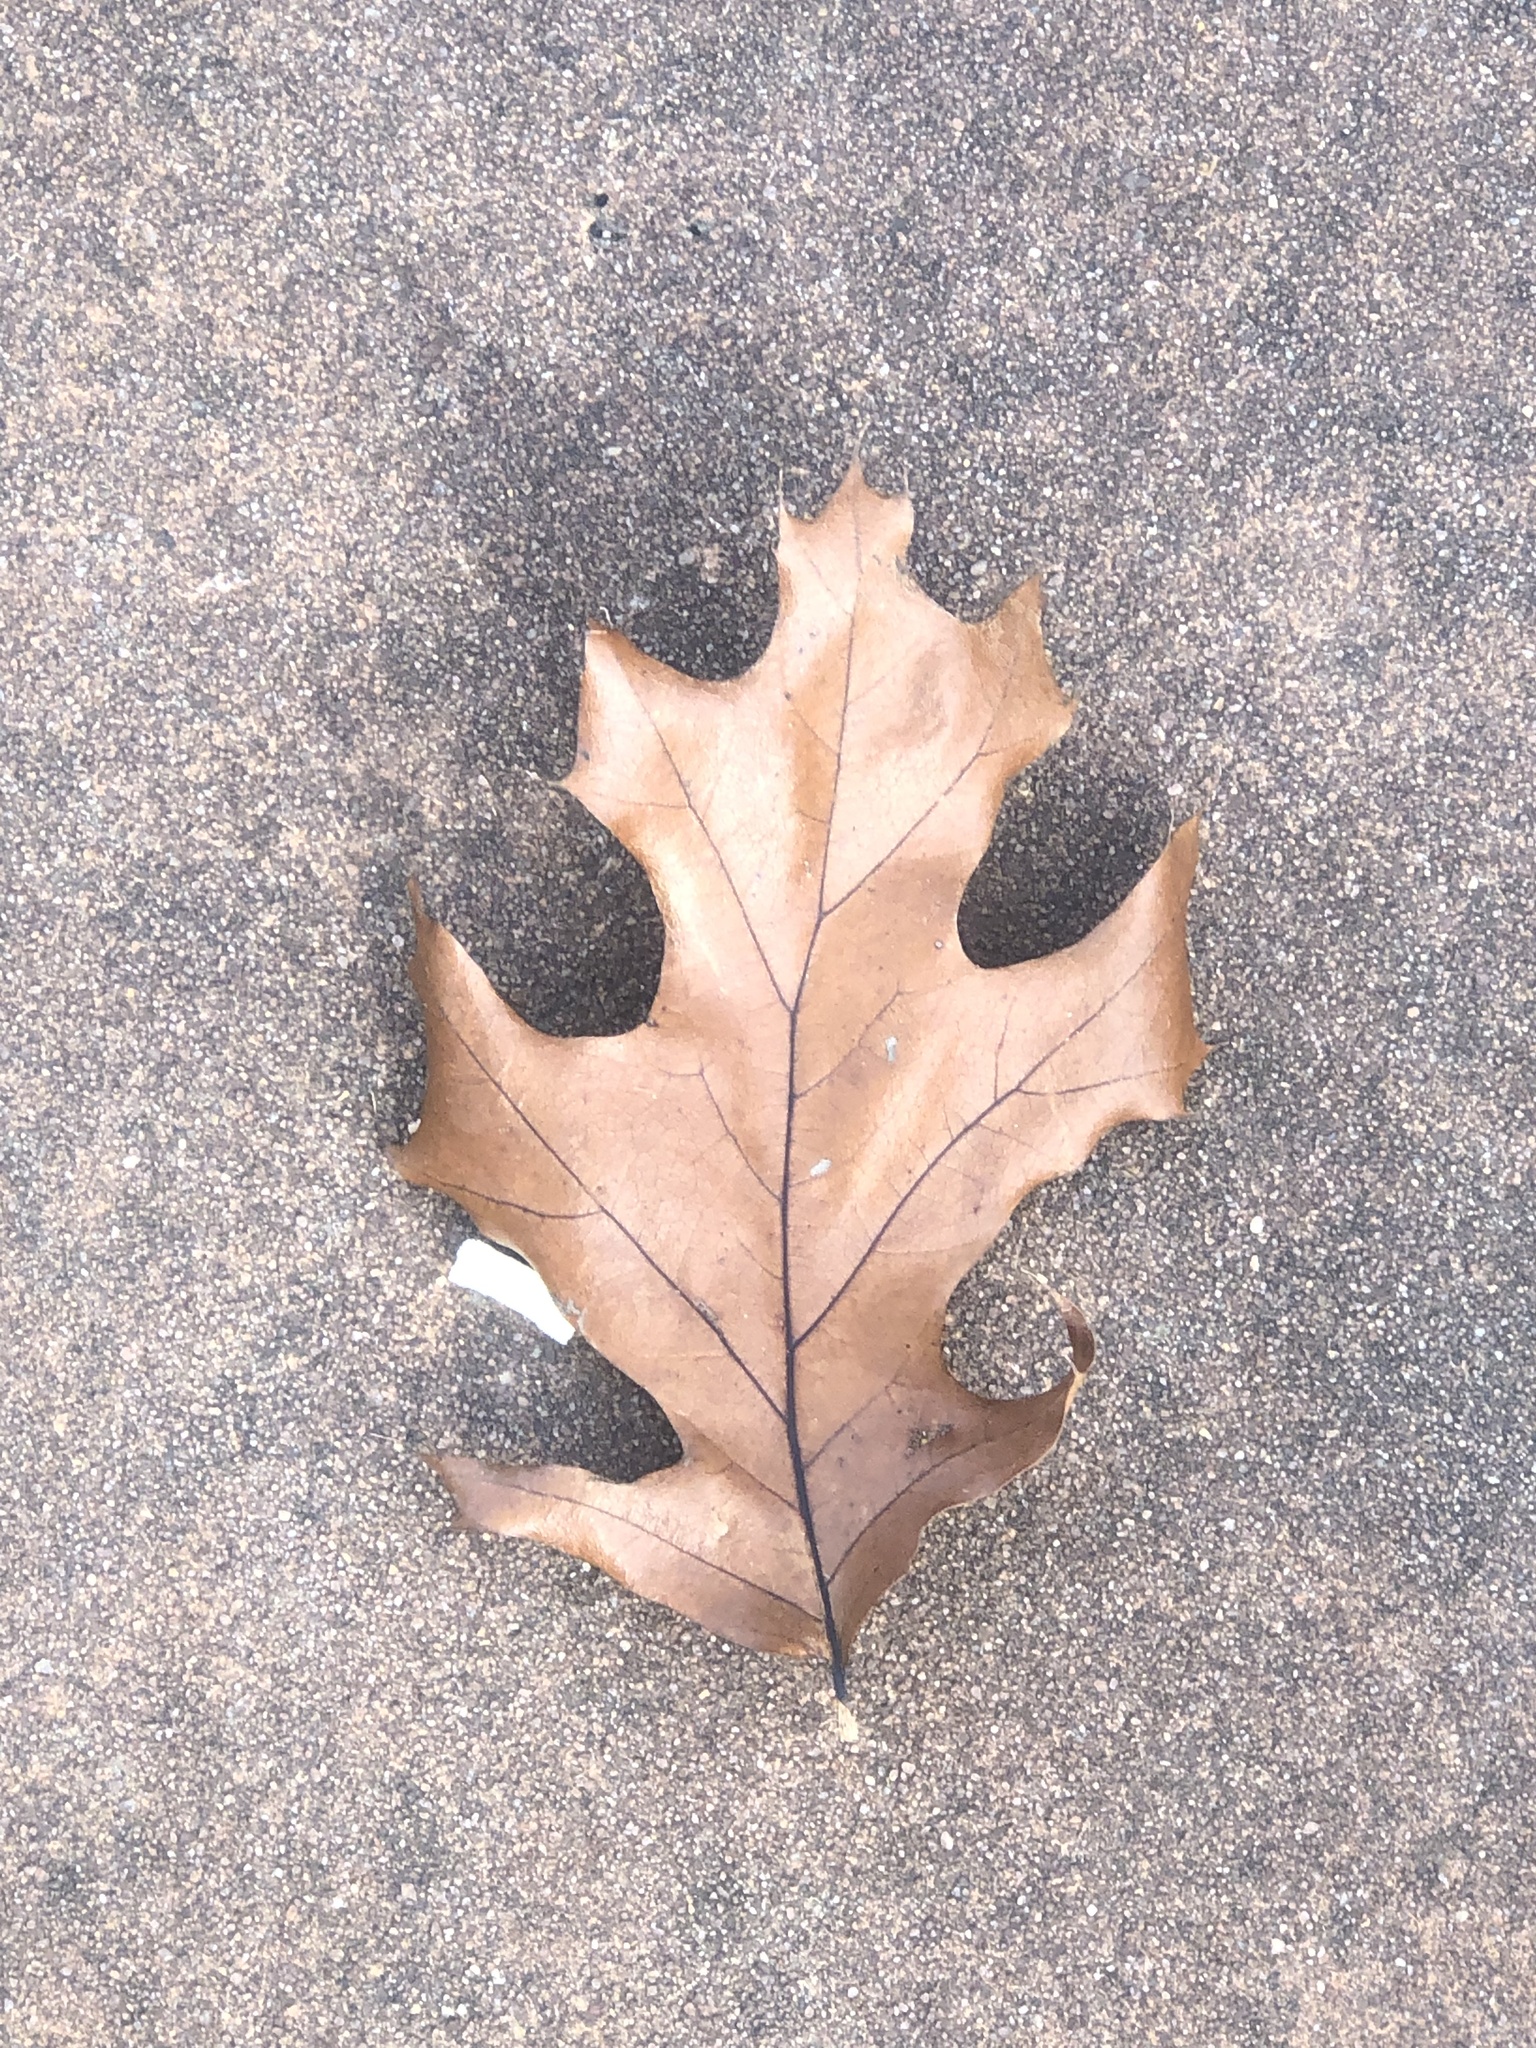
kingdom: Plantae
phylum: Tracheophyta
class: Magnoliopsida
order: Fagales
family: Fagaceae
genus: Quercus
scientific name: Quercus velutina
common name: Black oak
